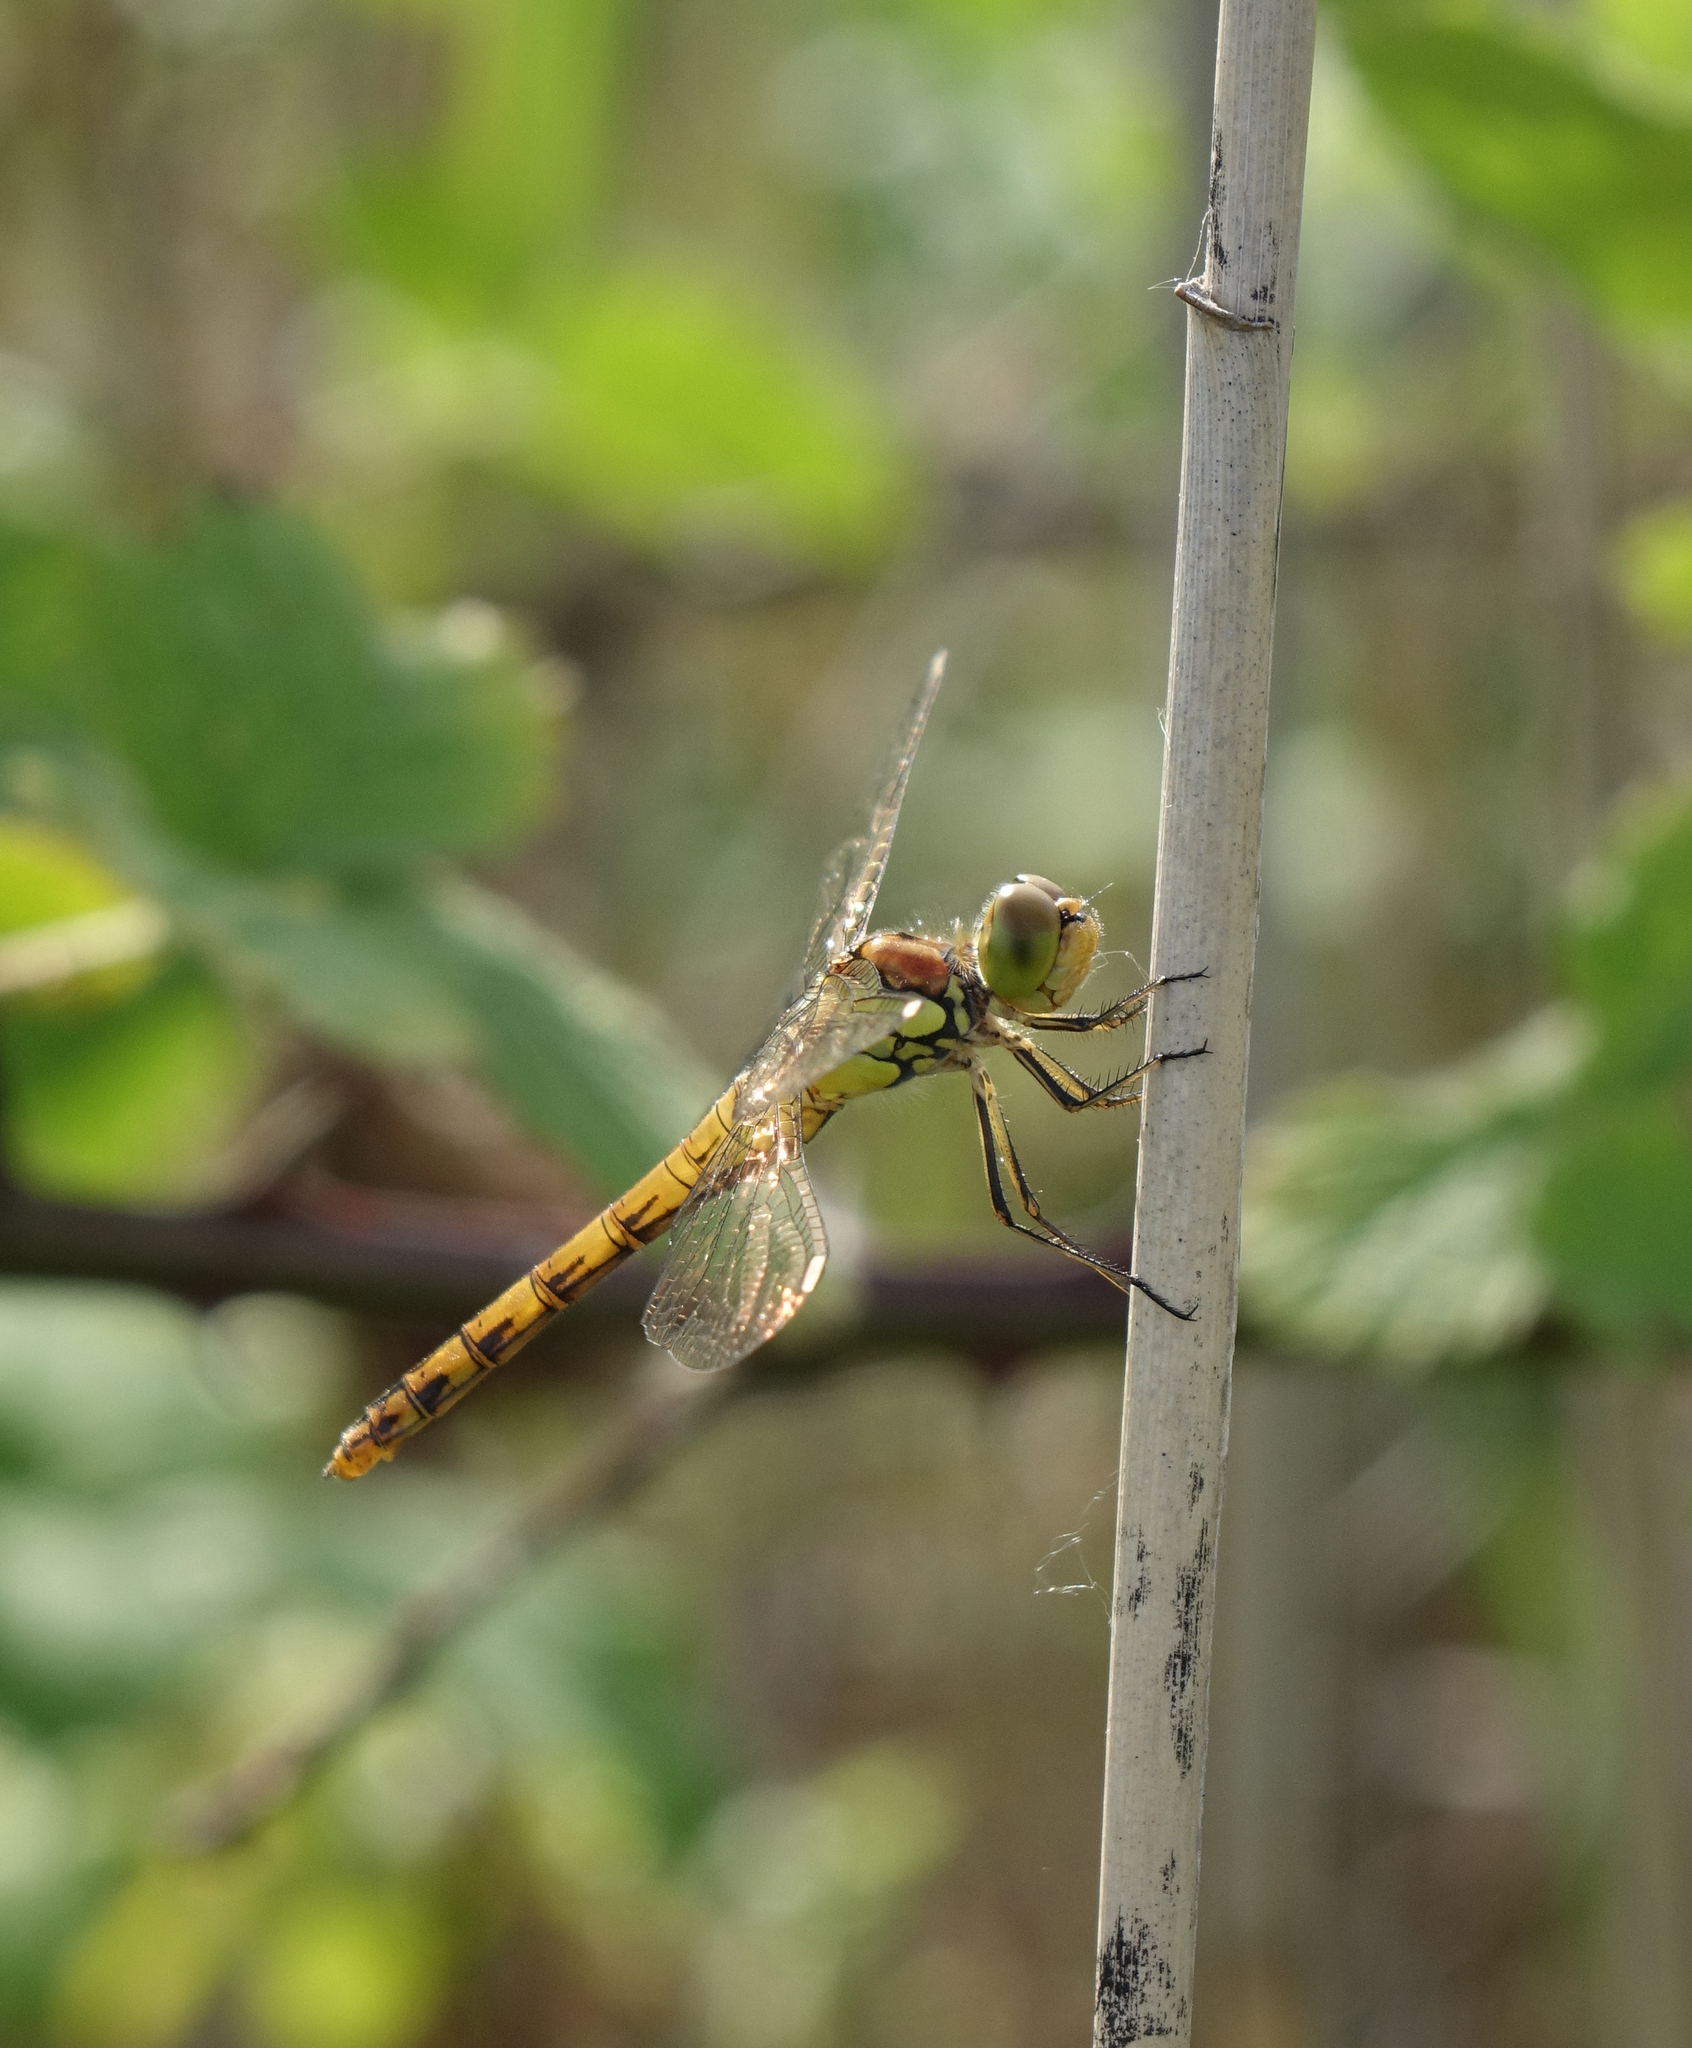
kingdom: Animalia
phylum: Arthropoda
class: Insecta
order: Odonata
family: Libellulidae
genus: Sympetrum
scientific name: Sympetrum striolatum
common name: Common darter
